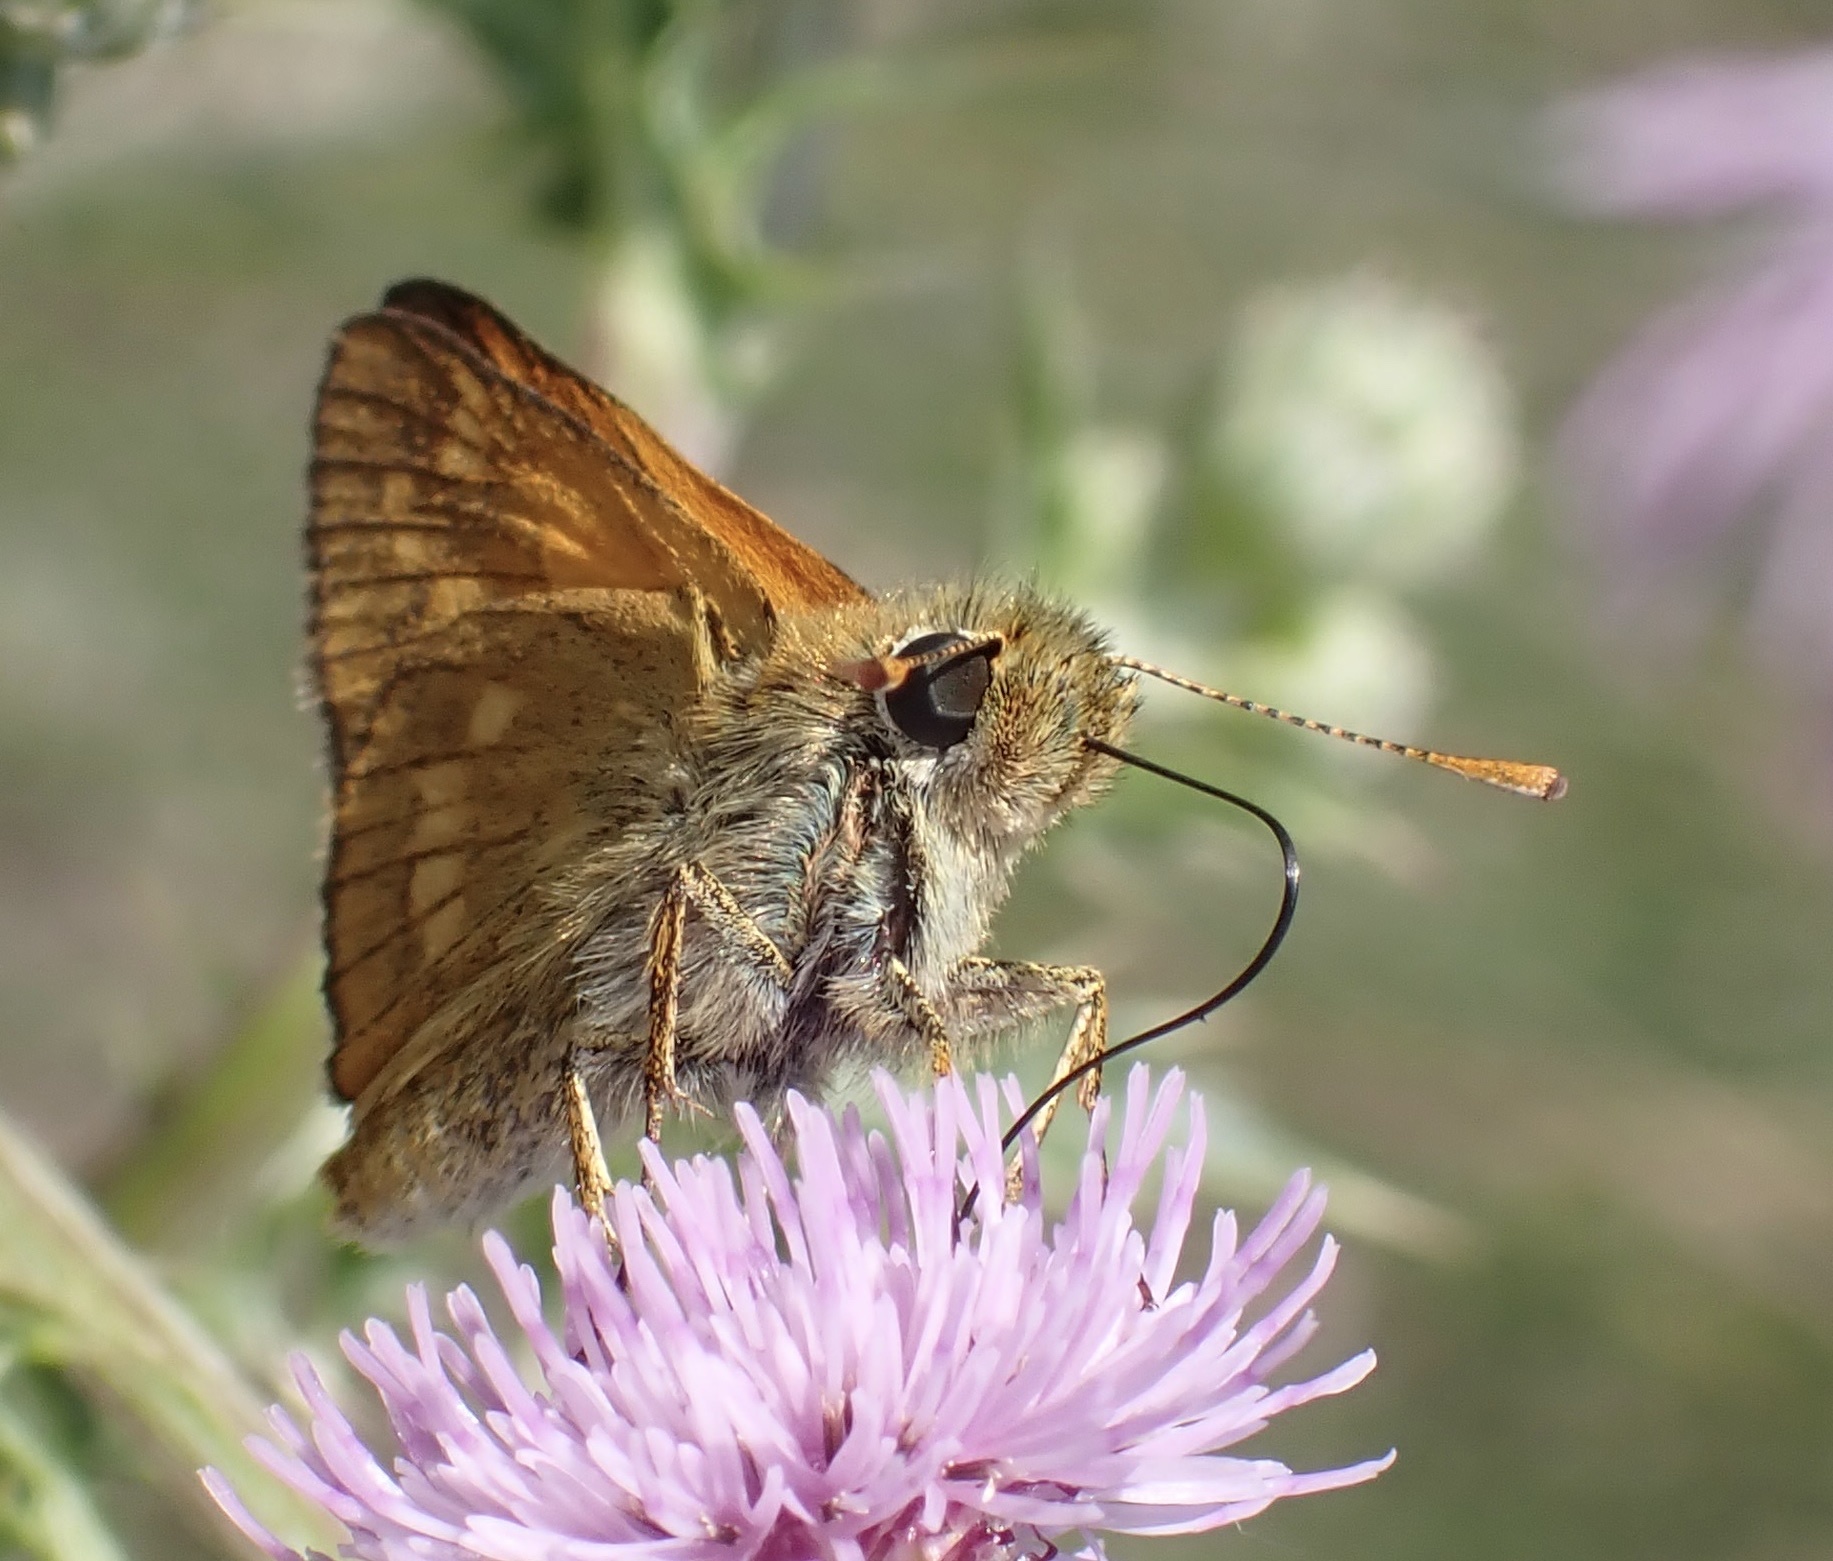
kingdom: Animalia
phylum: Arthropoda
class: Insecta
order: Lepidoptera
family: Hesperiidae
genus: Ochlodes
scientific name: Ochlodes venata
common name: Large skipper
